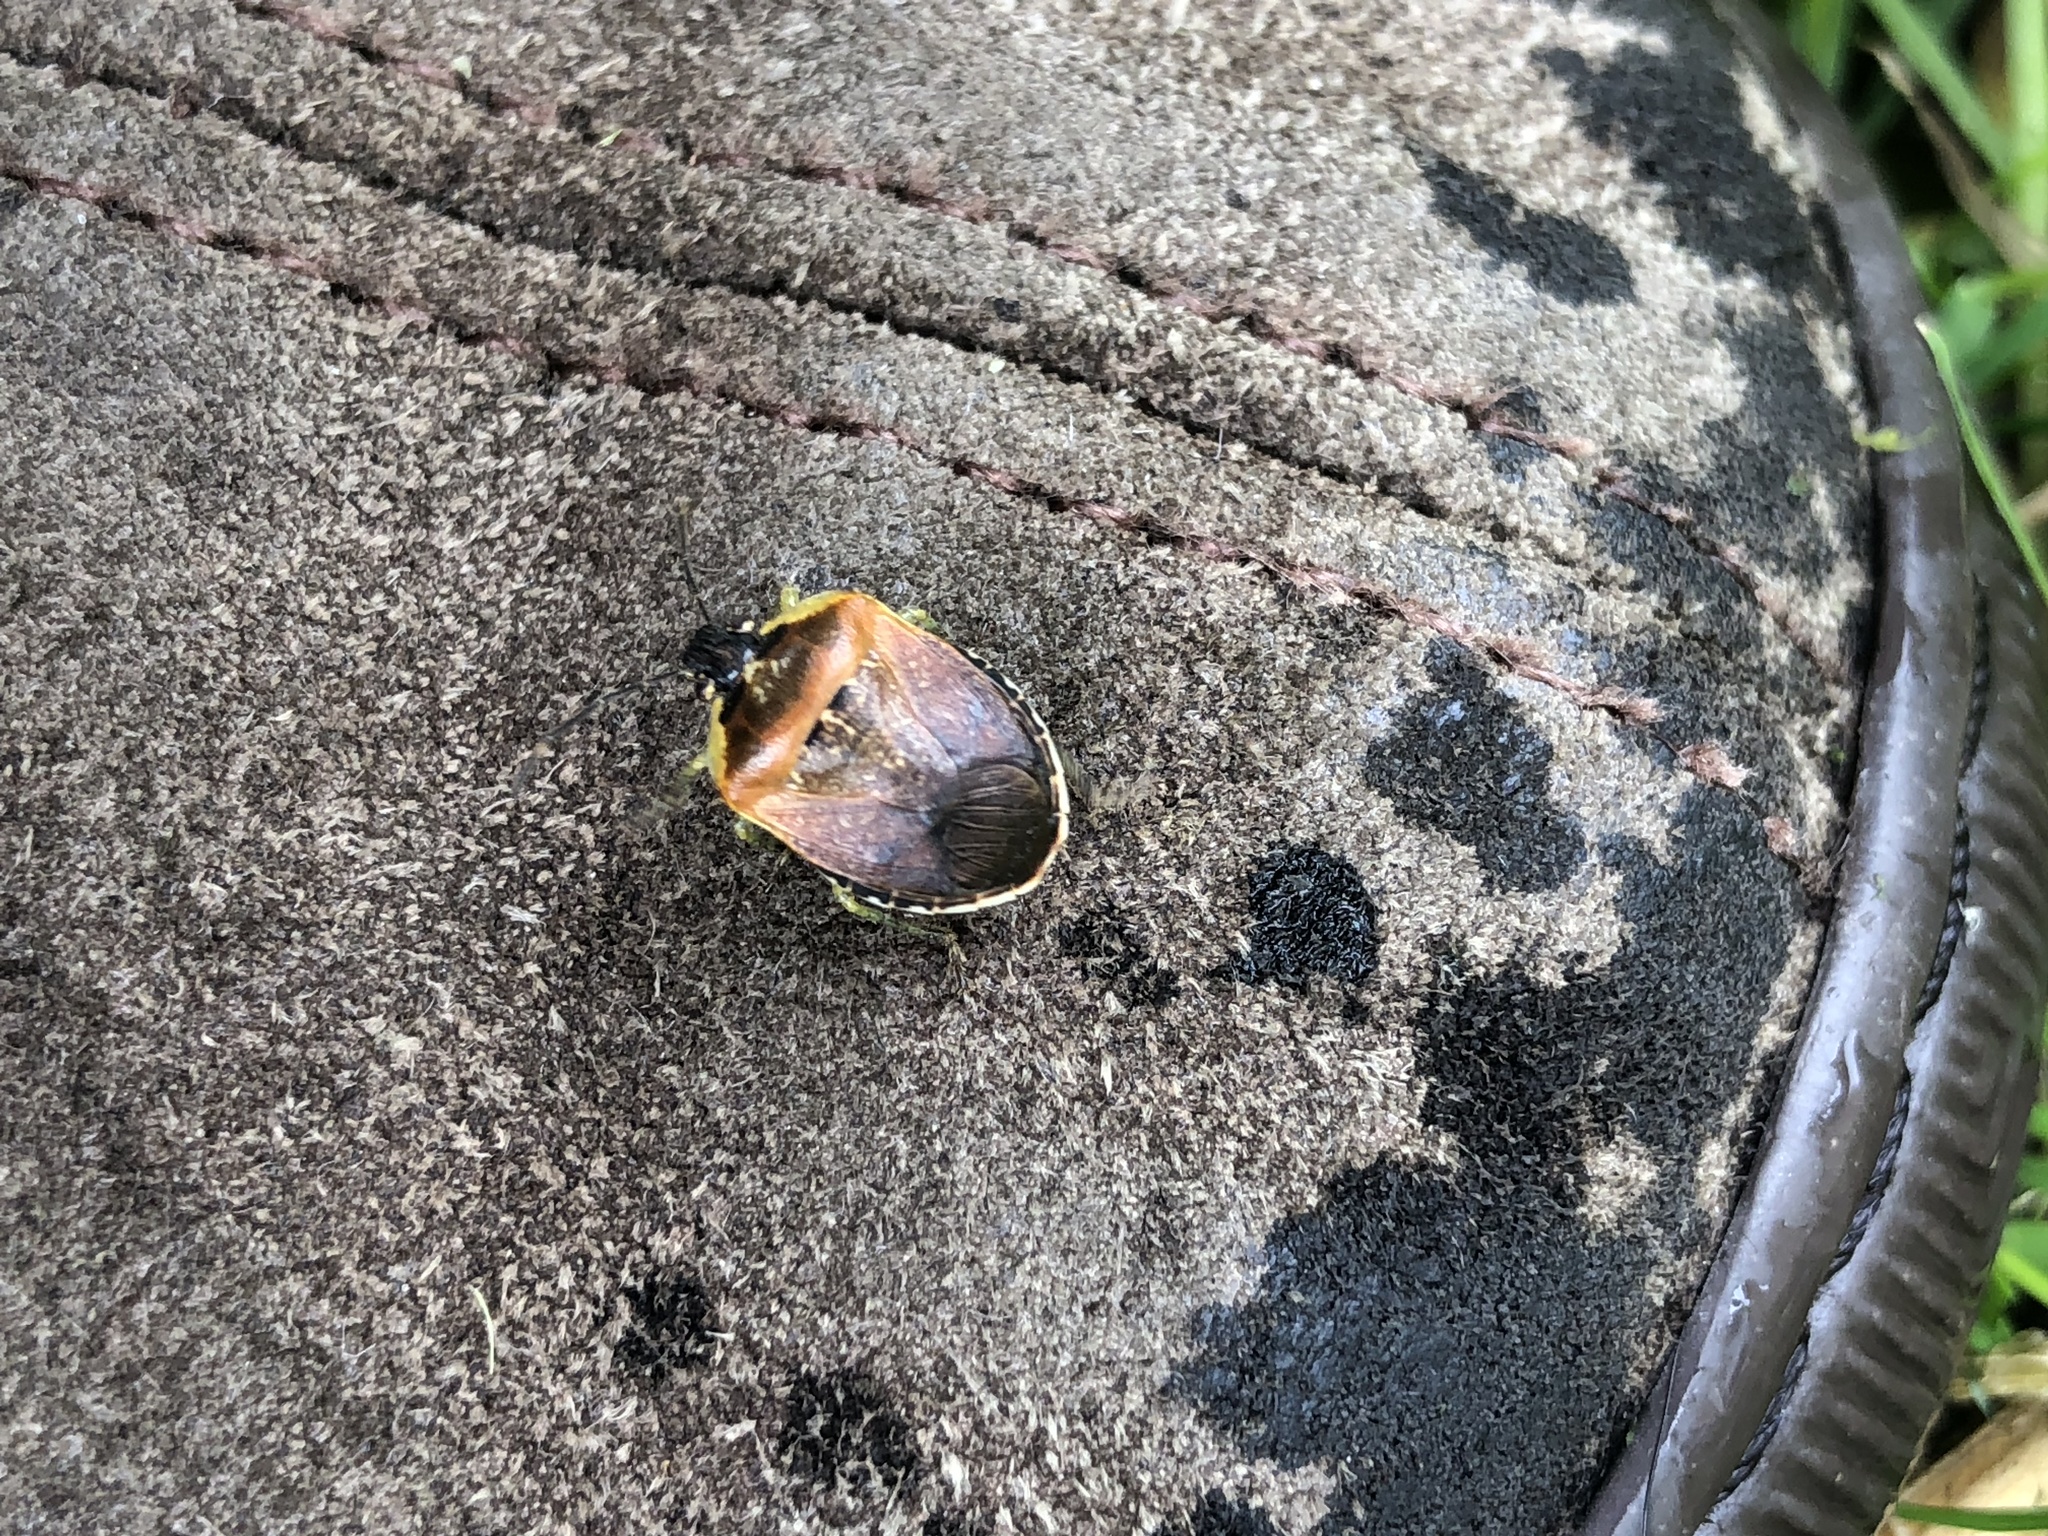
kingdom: Animalia
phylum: Arthropoda
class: Insecta
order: Hemiptera
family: Pentatomidae
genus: Monteithiella
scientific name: Monteithiella
